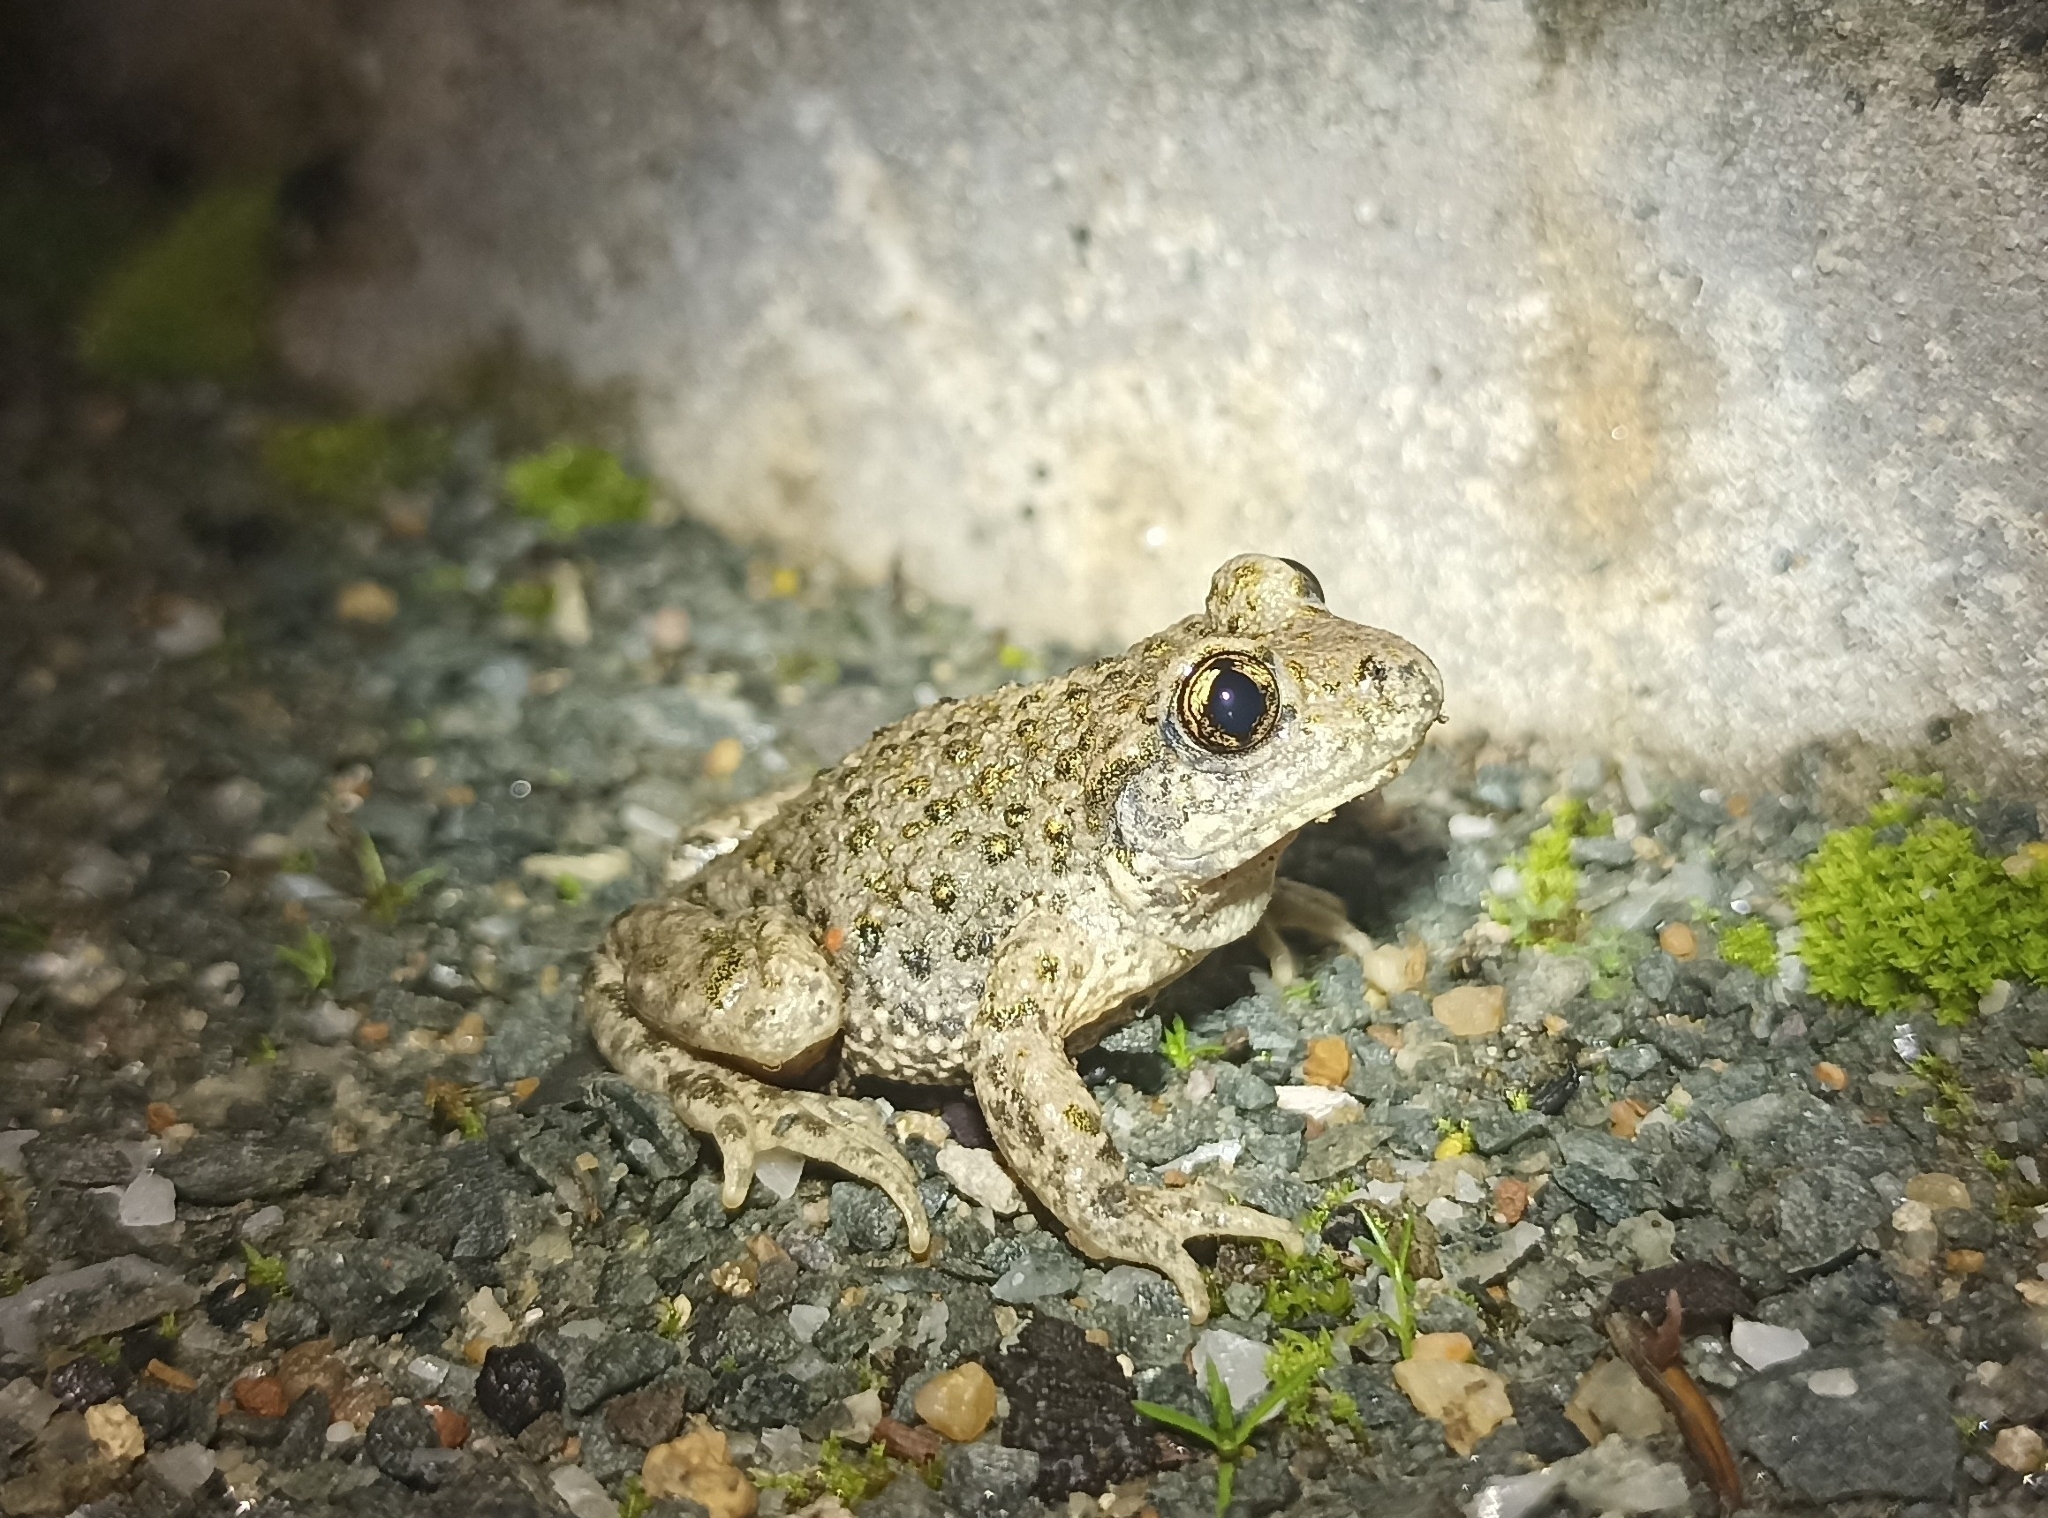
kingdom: Animalia
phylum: Chordata
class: Amphibia
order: Anura
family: Alytidae
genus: Alytes
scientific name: Alytes obstetricans
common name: Midwife toad
